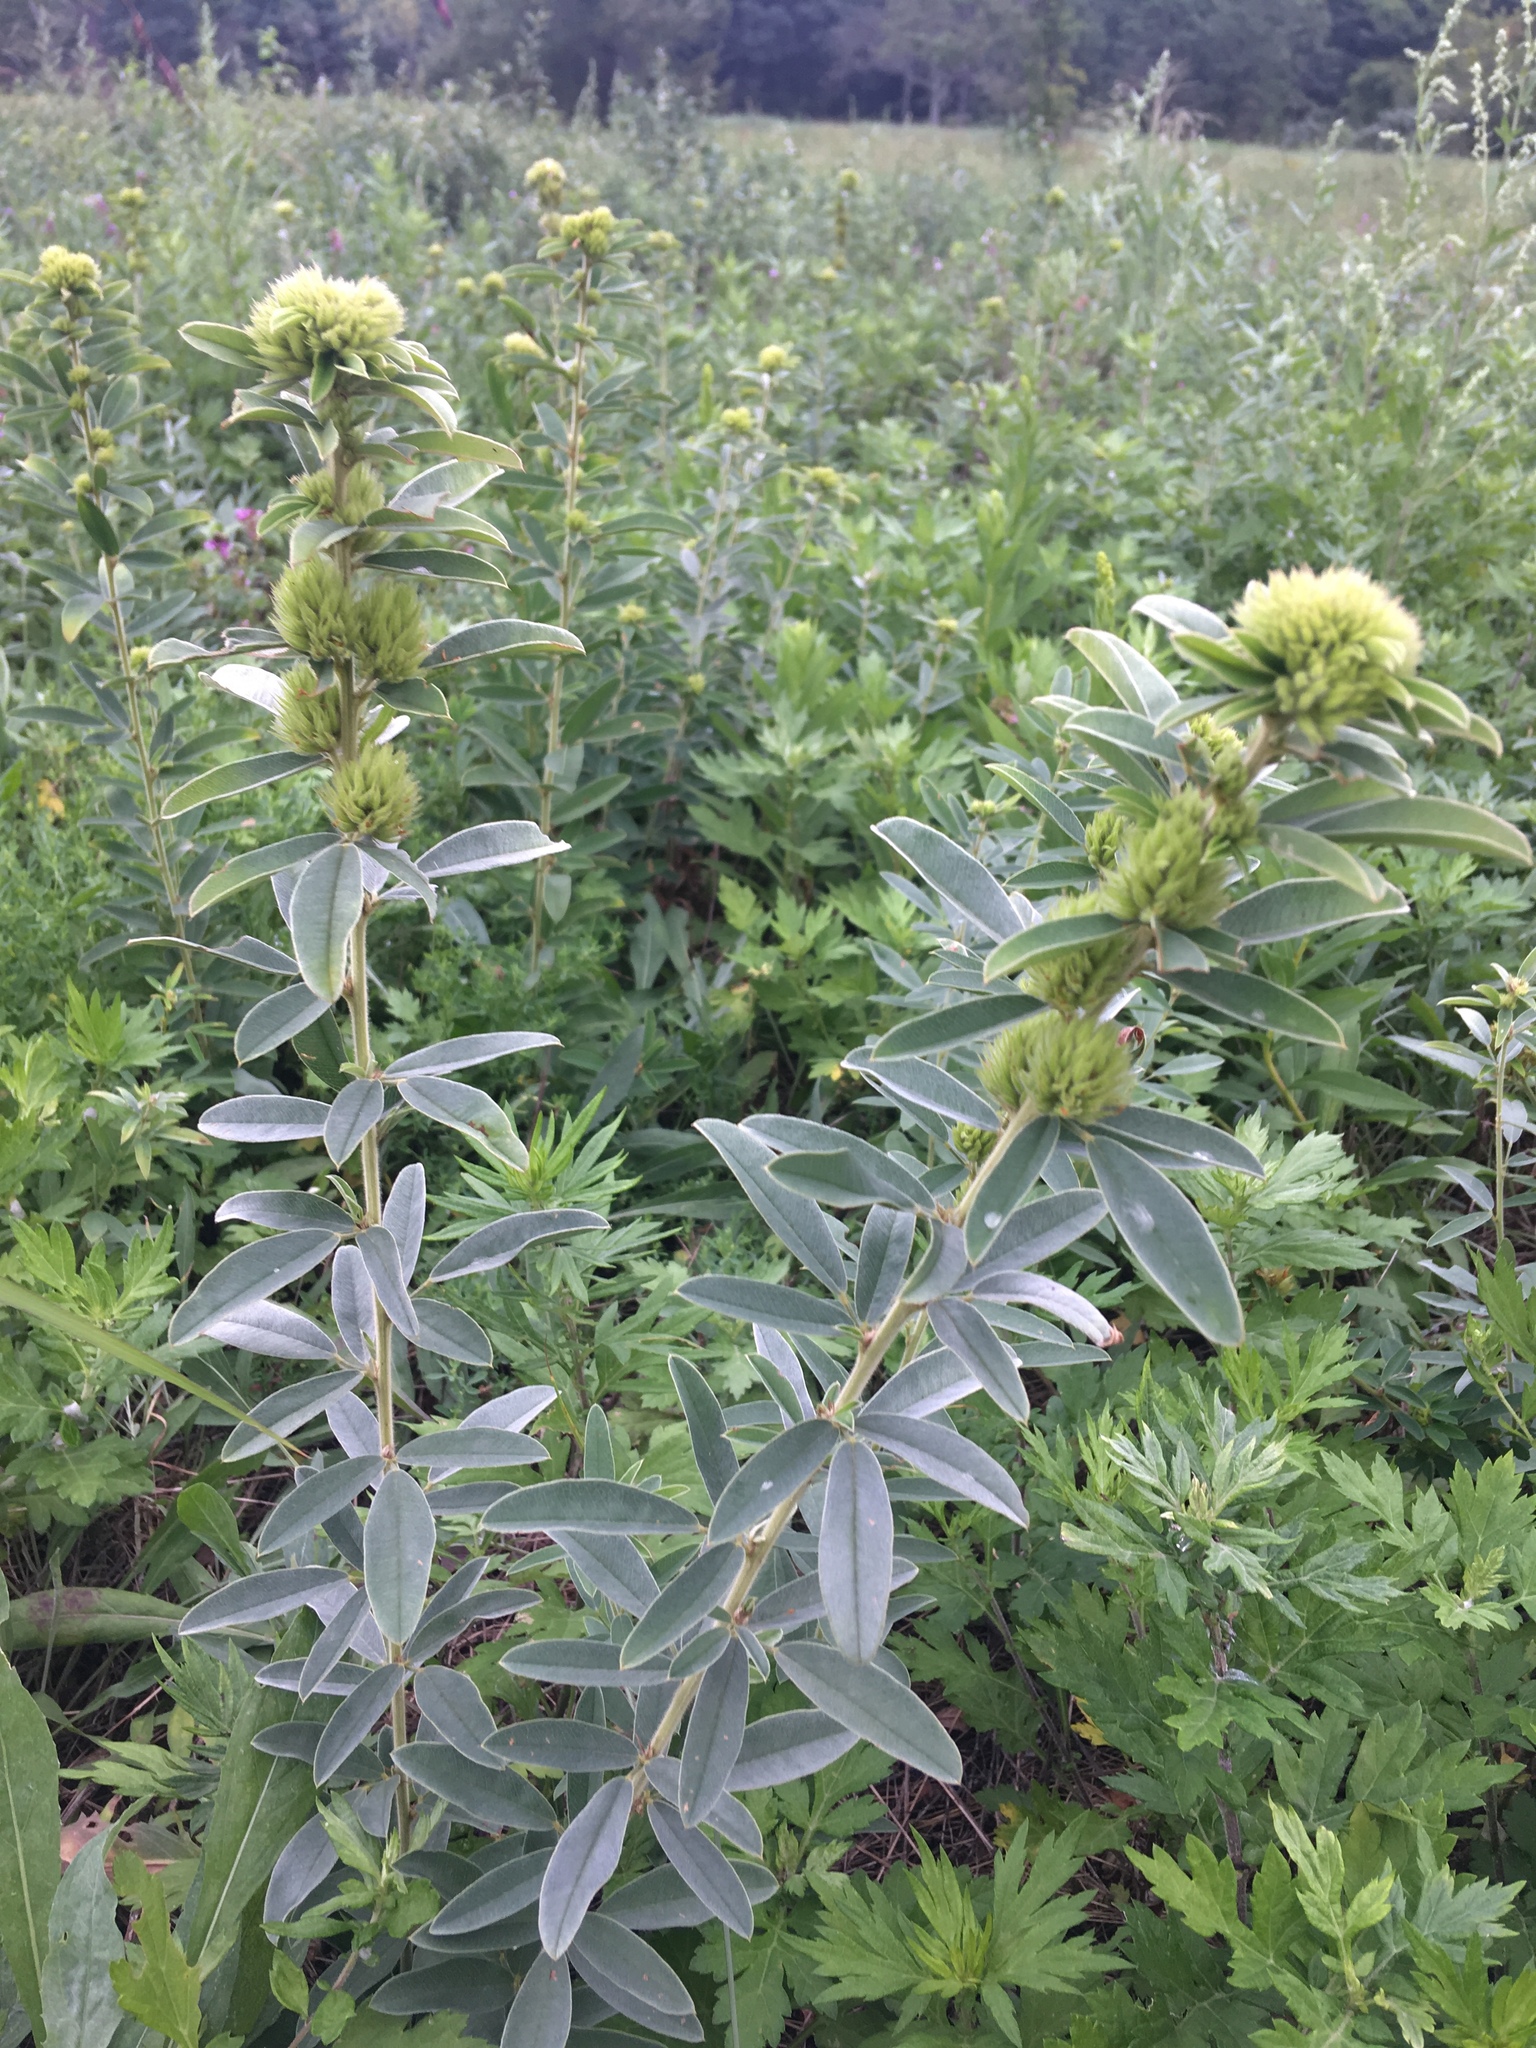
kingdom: Plantae
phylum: Tracheophyta
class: Magnoliopsida
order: Fabales
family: Fabaceae
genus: Lespedeza
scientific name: Lespedeza capitata
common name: Dusty clover
